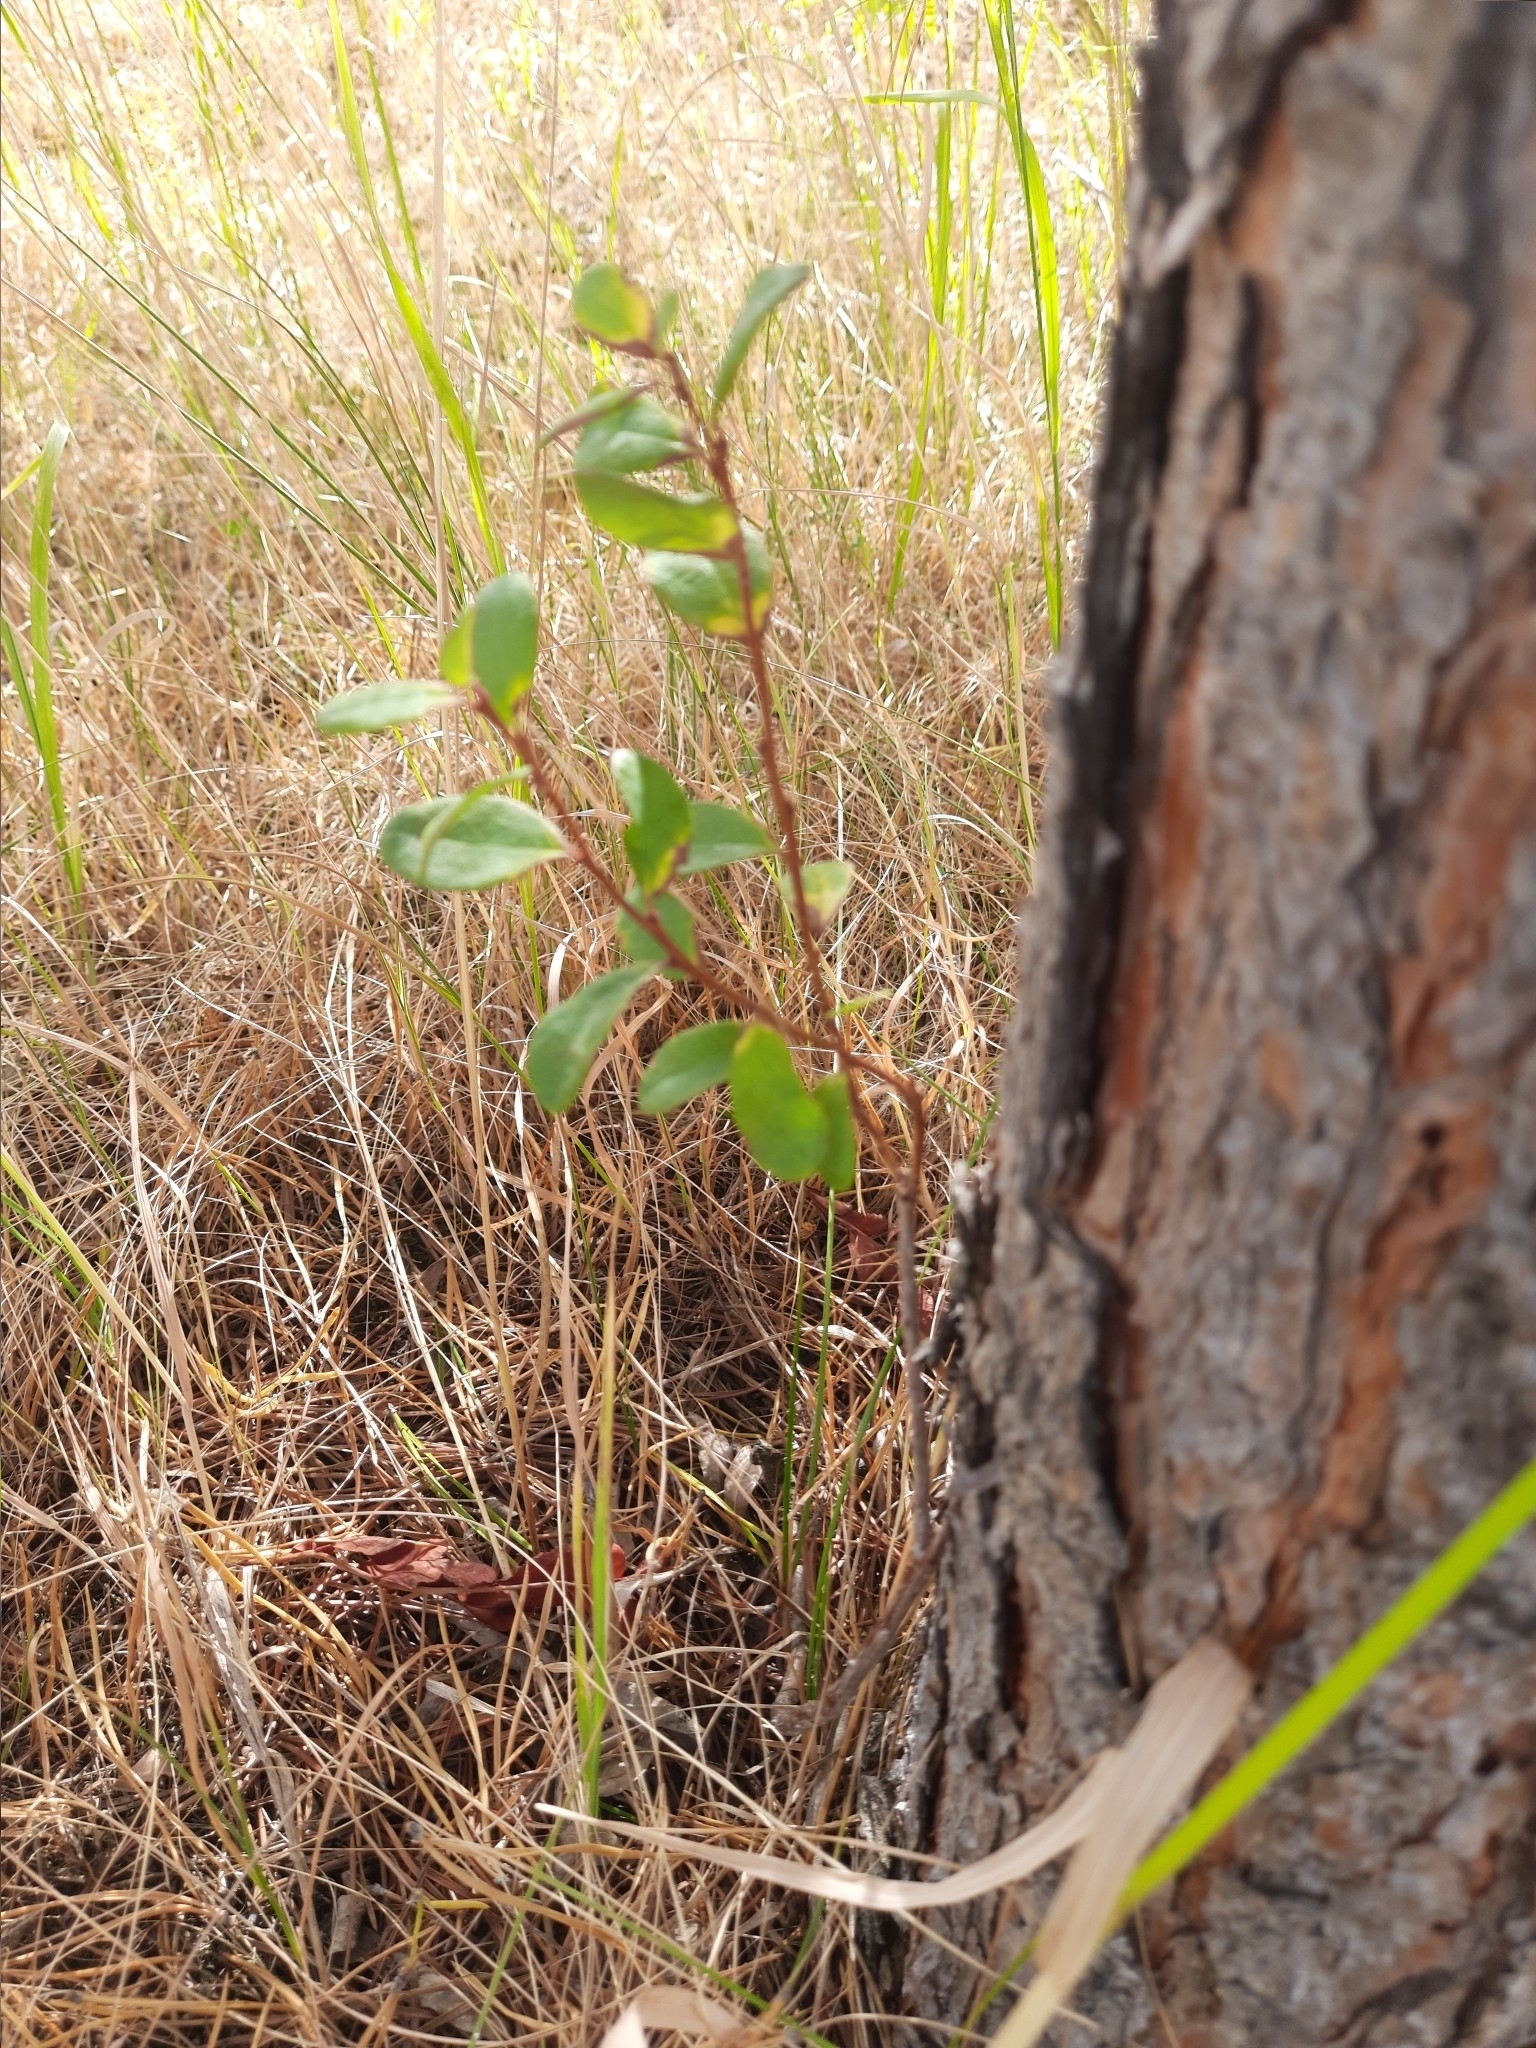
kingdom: Plantae
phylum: Tracheophyta
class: Magnoliopsida
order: Ericales
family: Ericaceae
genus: Vaccinium
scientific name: Vaccinium uliginosum
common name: Bog bilberry
